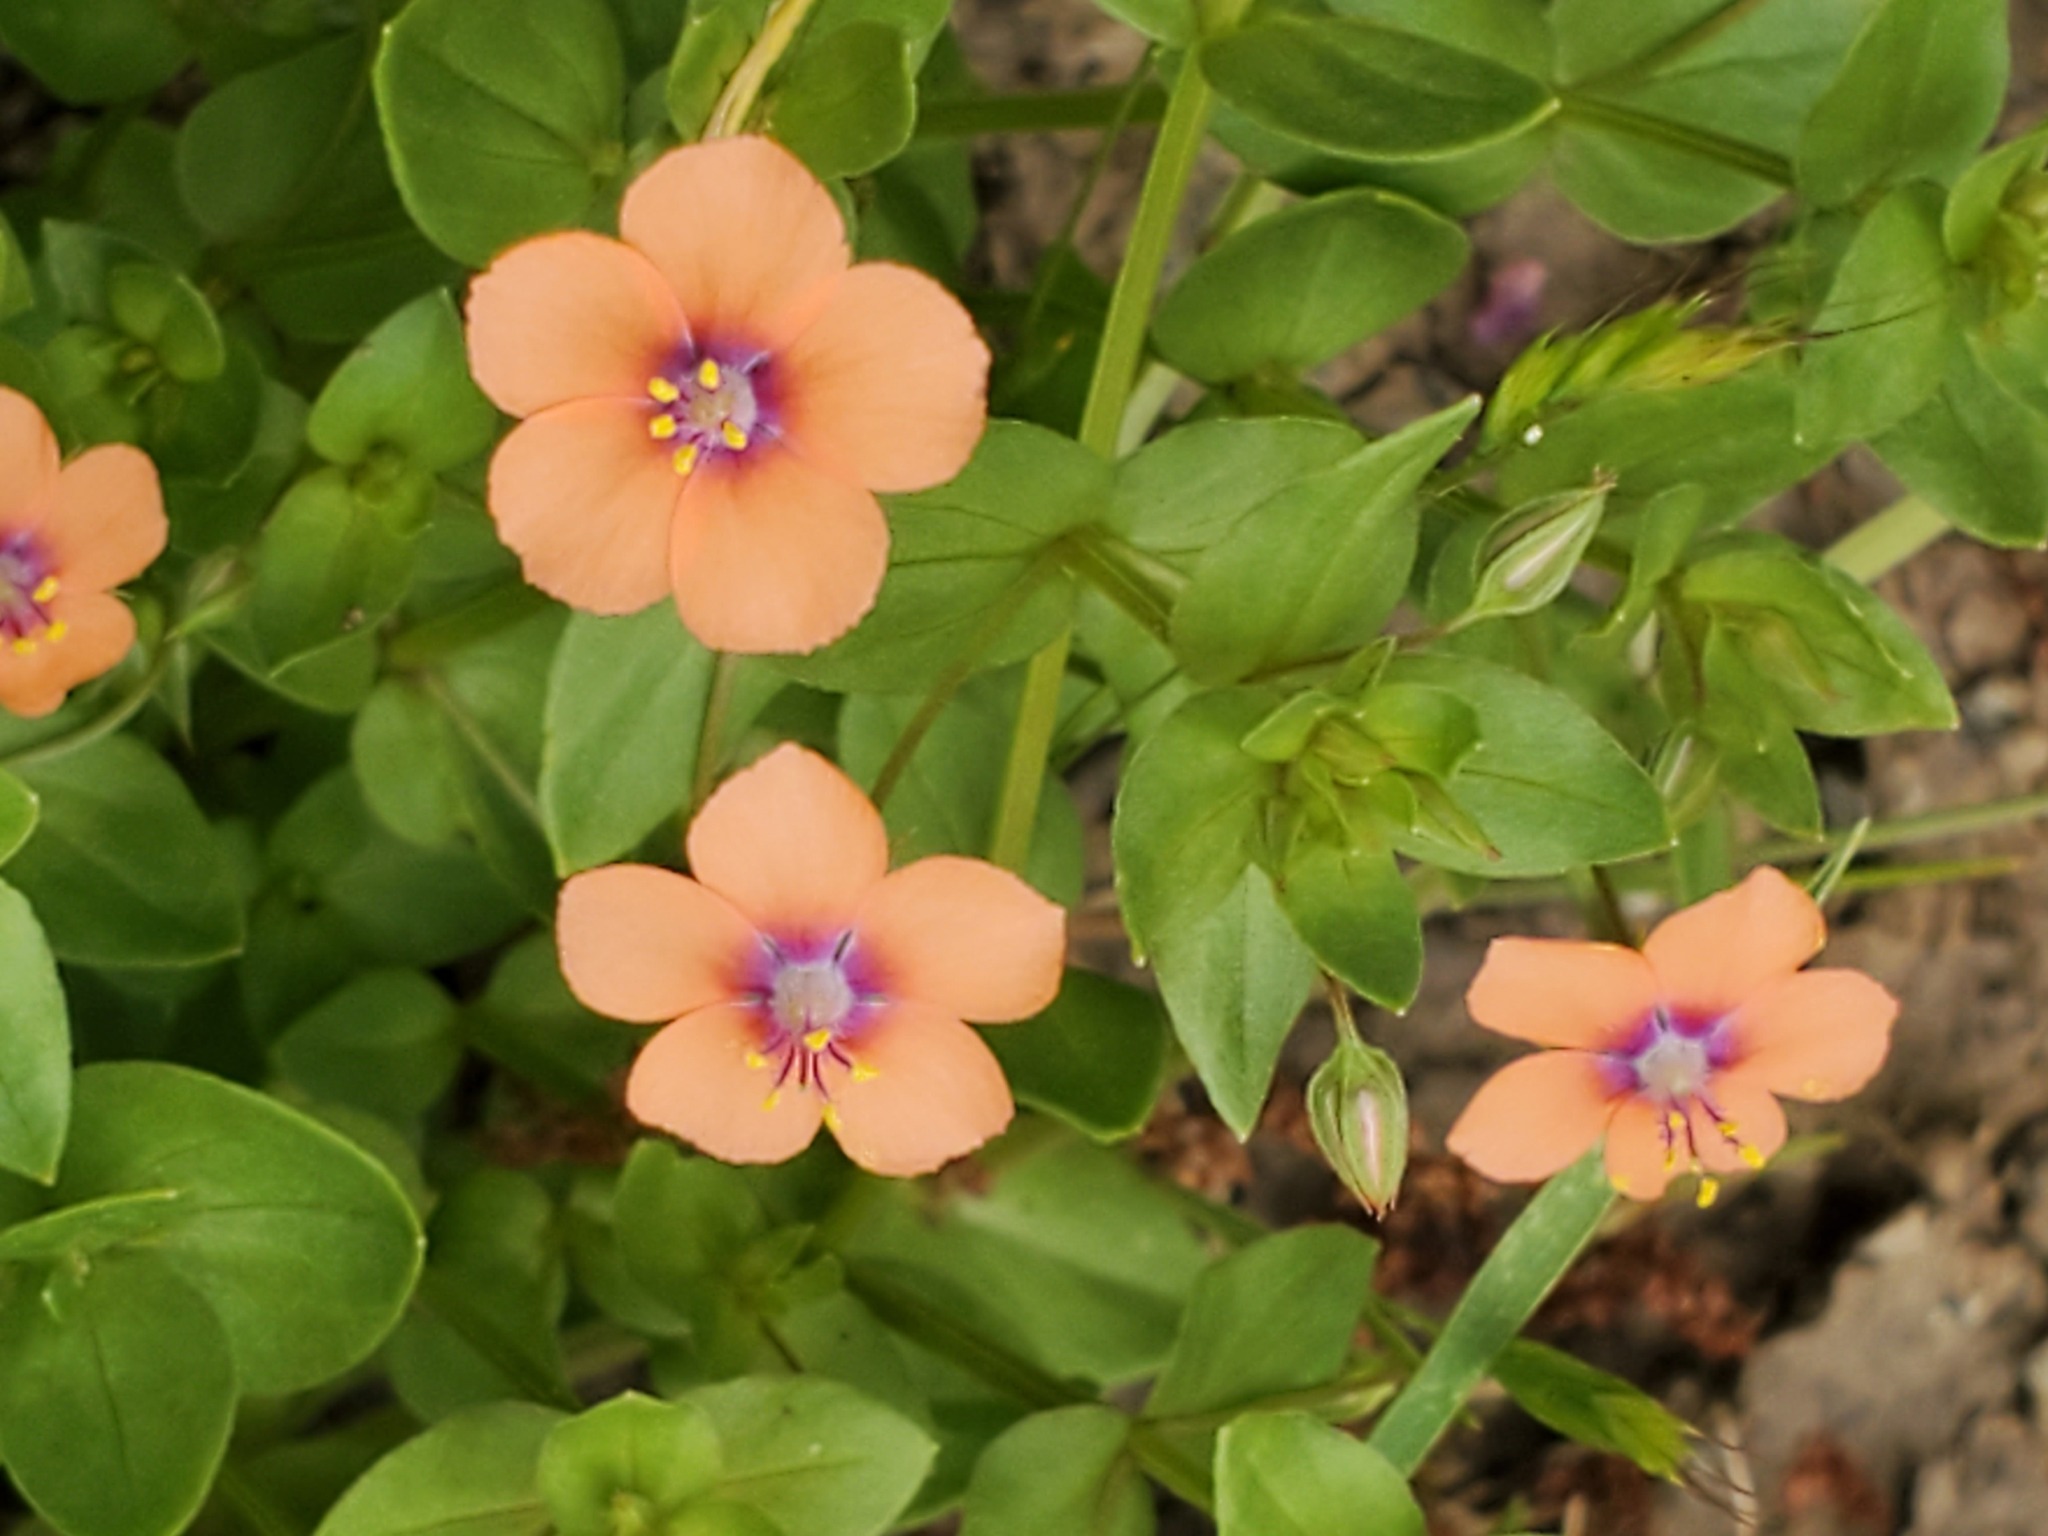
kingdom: Plantae
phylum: Tracheophyta
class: Magnoliopsida
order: Ericales
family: Primulaceae
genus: Lysimachia
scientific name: Lysimachia arvensis
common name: Scarlet pimpernel
